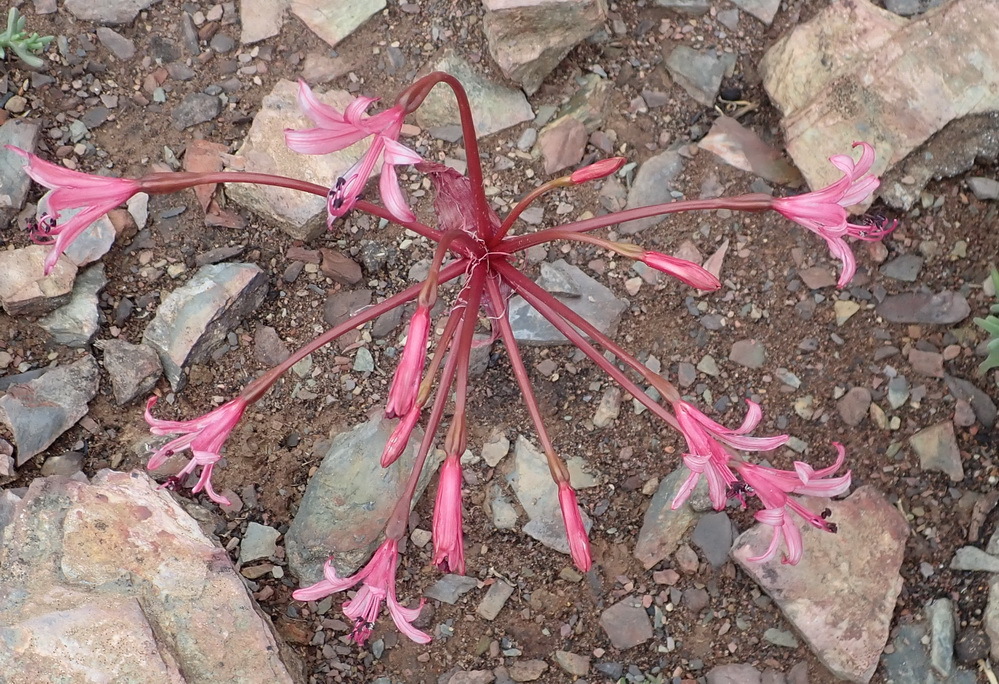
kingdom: Plantae
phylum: Tracheophyta
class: Liliopsida
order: Asparagales
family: Amaryllidaceae
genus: Brunsvigia
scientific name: Brunsvigia nervosa
